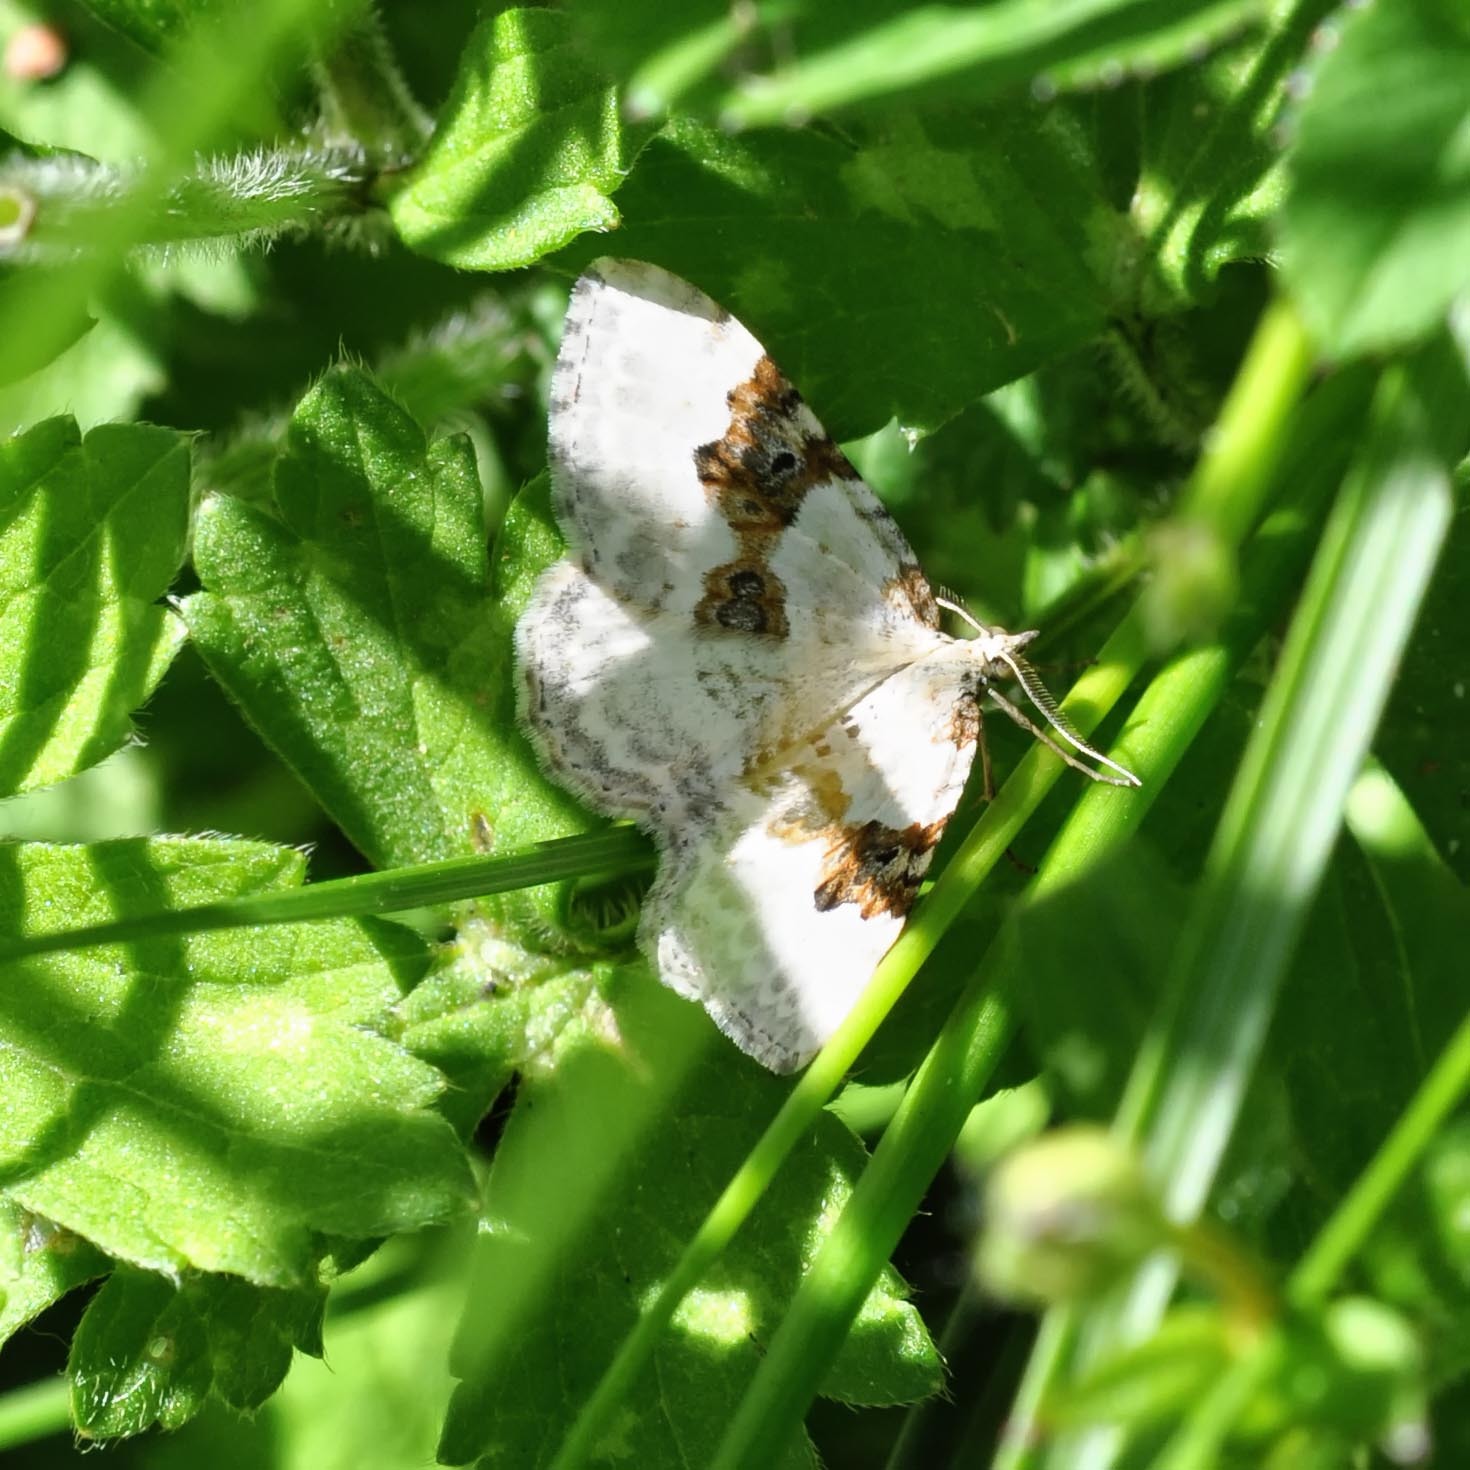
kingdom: Animalia
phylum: Arthropoda
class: Insecta
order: Lepidoptera
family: Geometridae
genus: Xanthorhoe
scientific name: Xanthorhoe montanata
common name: Silver-ground carpet
